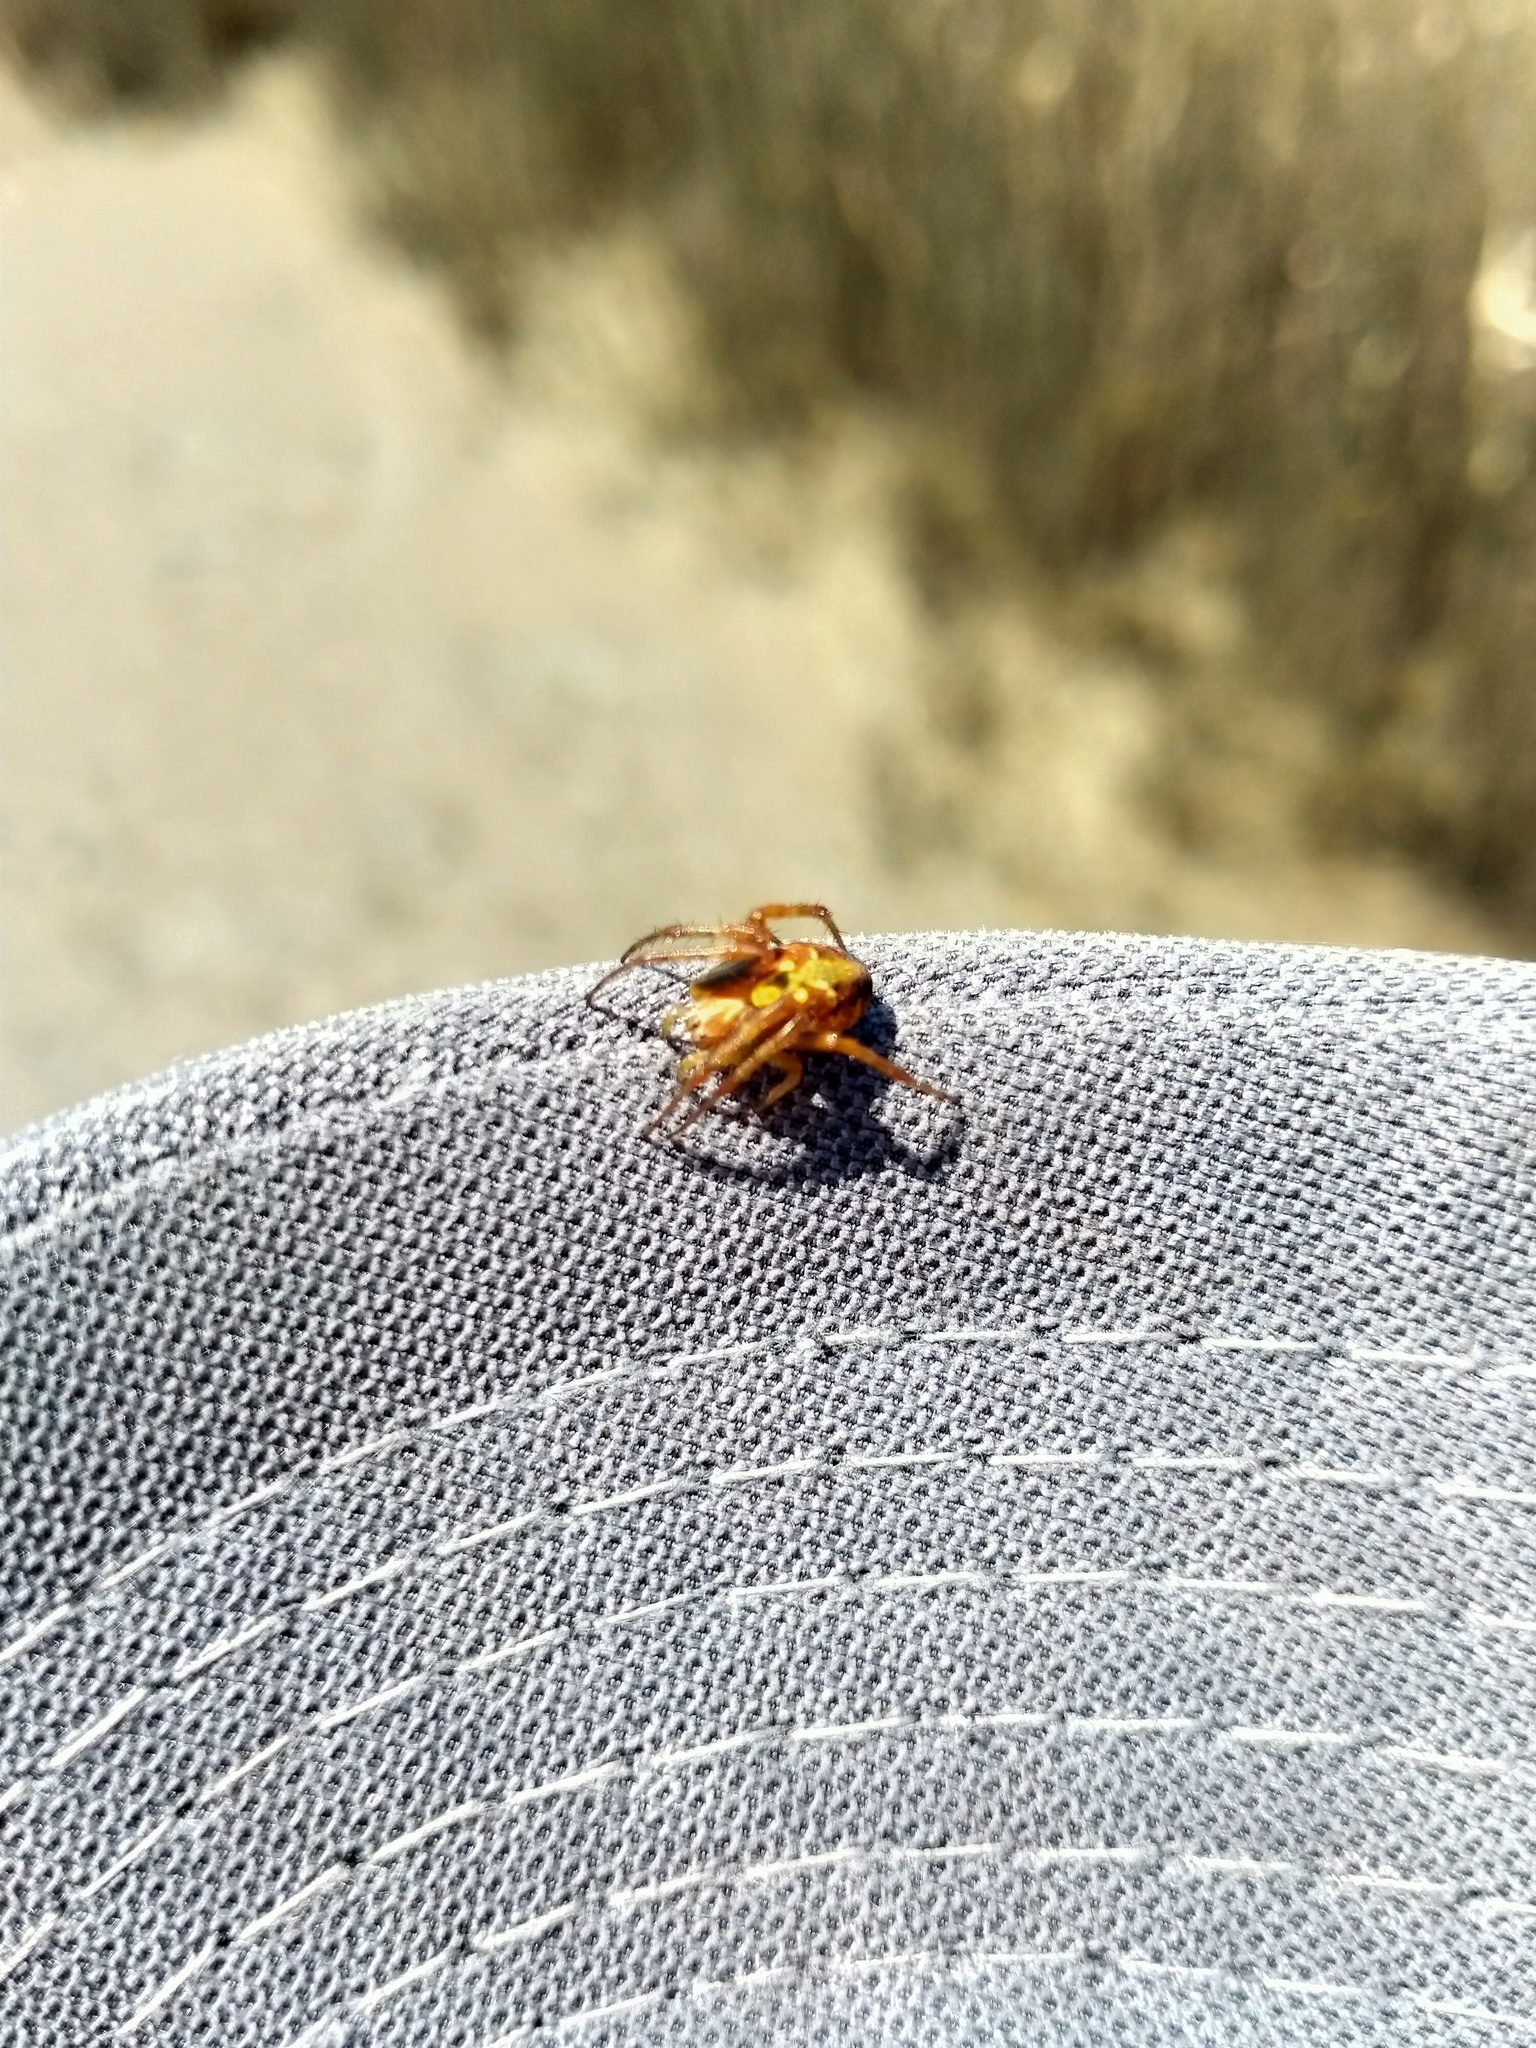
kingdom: Animalia
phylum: Arthropoda
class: Arachnida
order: Araneae
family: Araneidae
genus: Novaranea
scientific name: Novaranea queribunda
